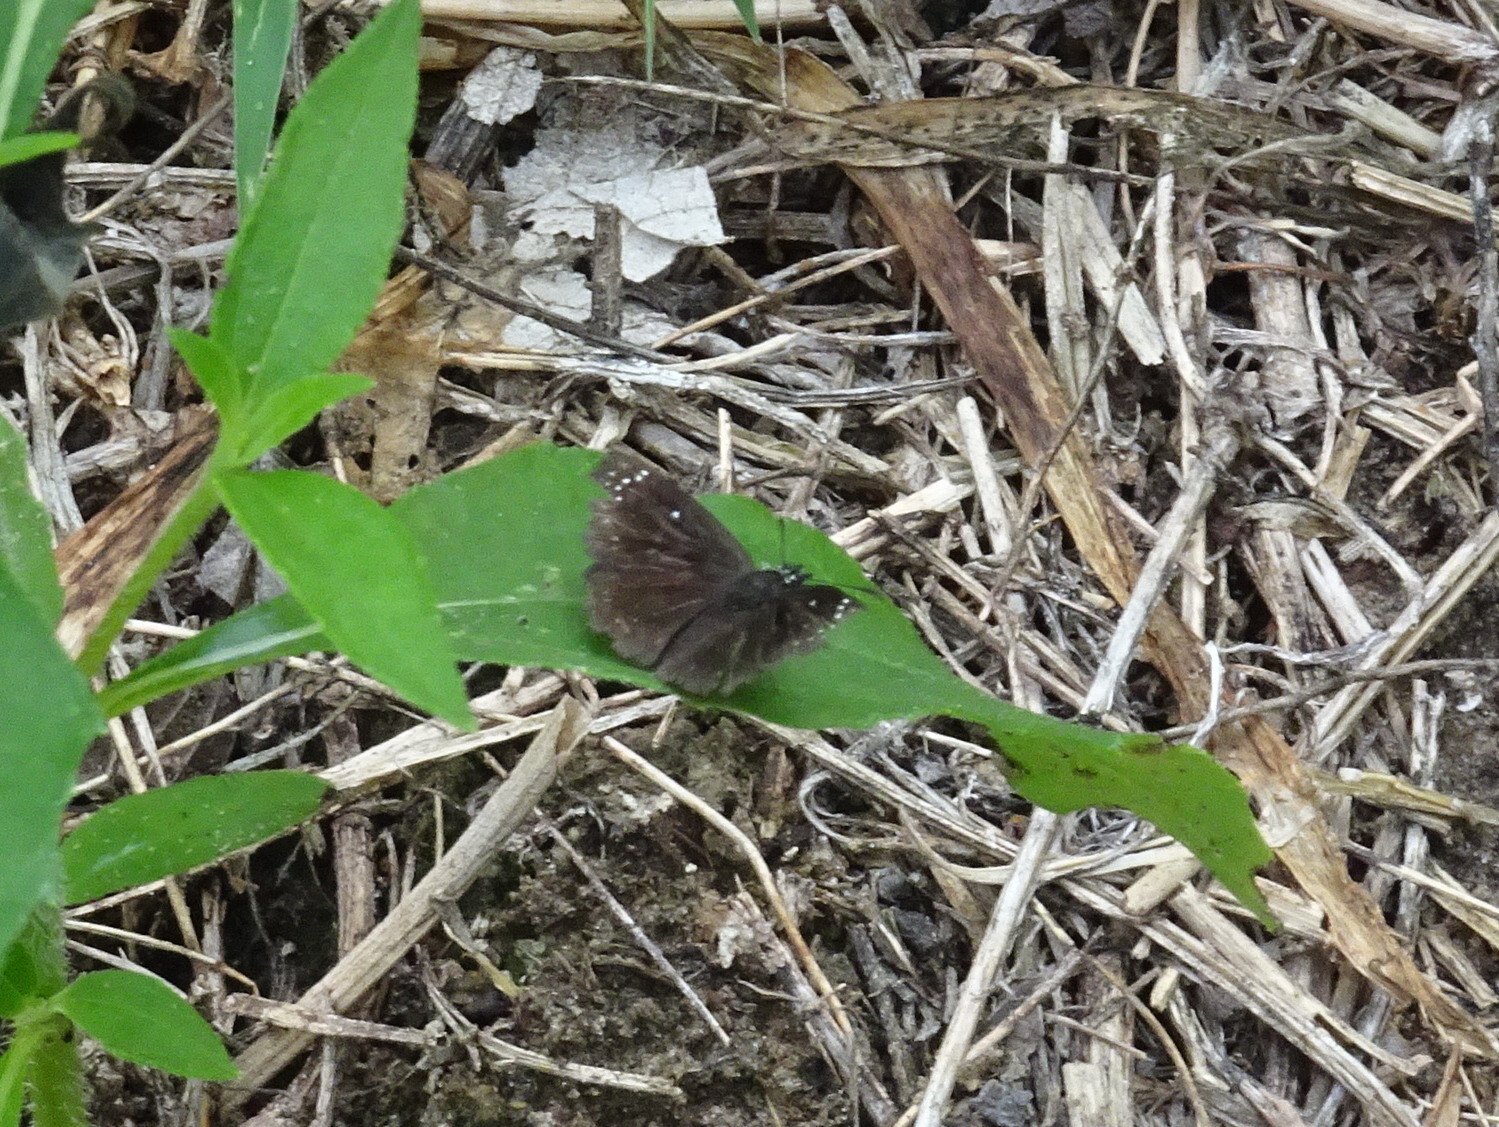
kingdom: Animalia
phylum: Arthropoda
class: Insecta
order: Lepidoptera
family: Hesperiidae
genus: Pholisora
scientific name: Pholisora catullus
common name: Common sootywing
